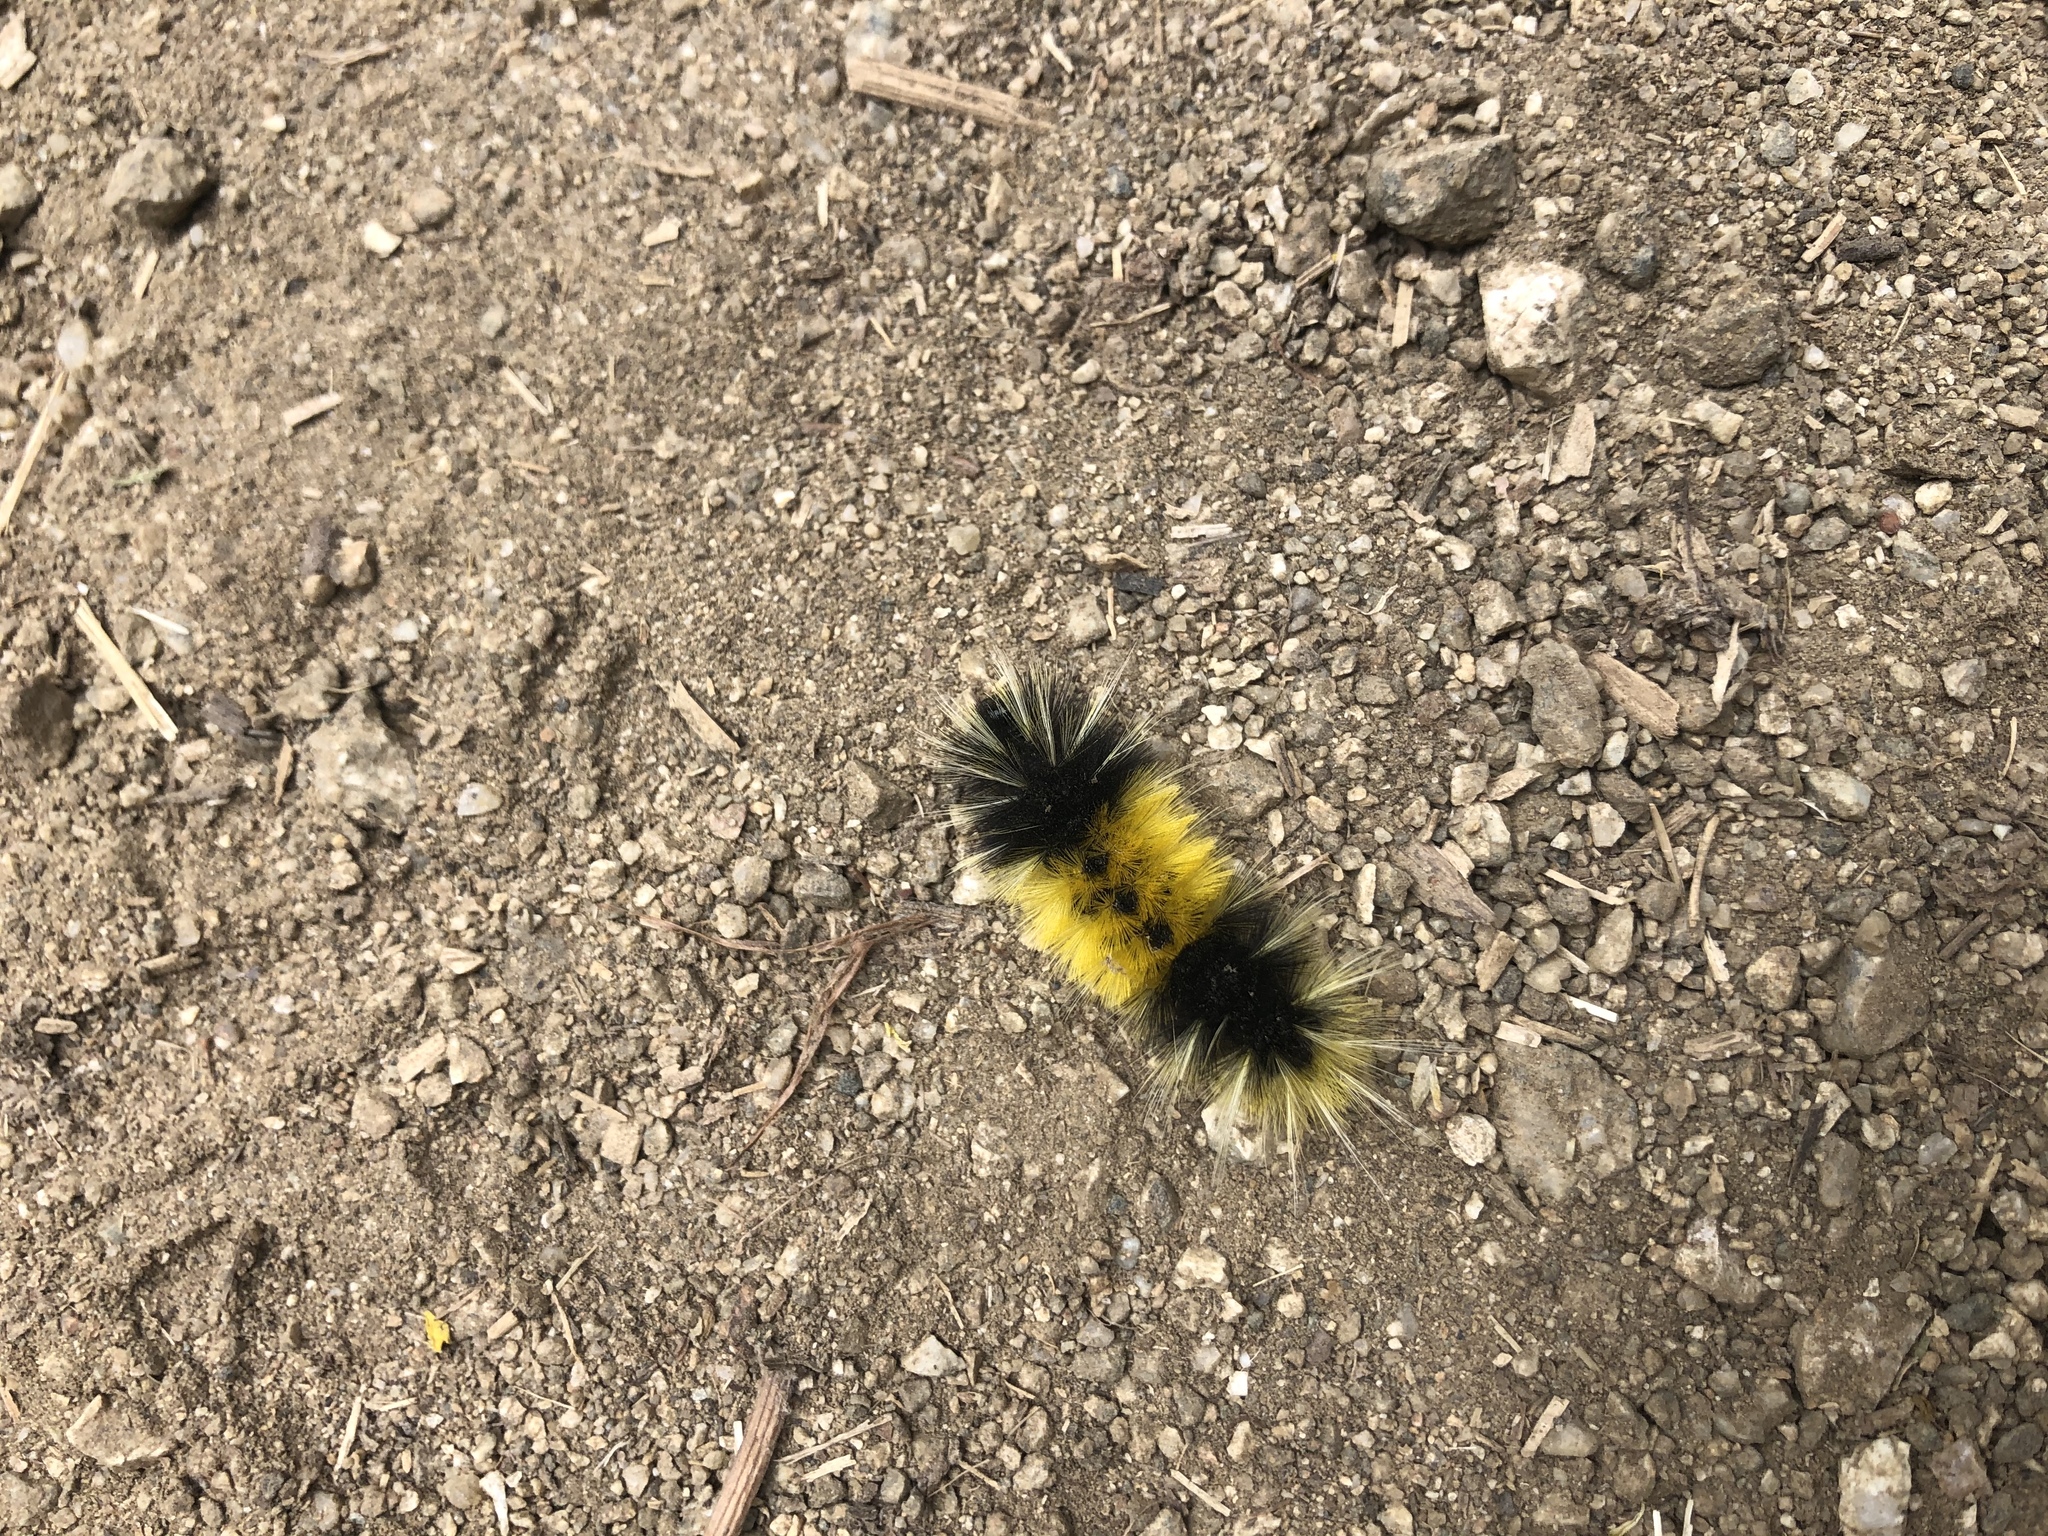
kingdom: Animalia
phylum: Arthropoda
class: Insecta
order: Lepidoptera
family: Erebidae
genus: Lophocampa
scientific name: Lophocampa maculata
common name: Spotted tussock moth
